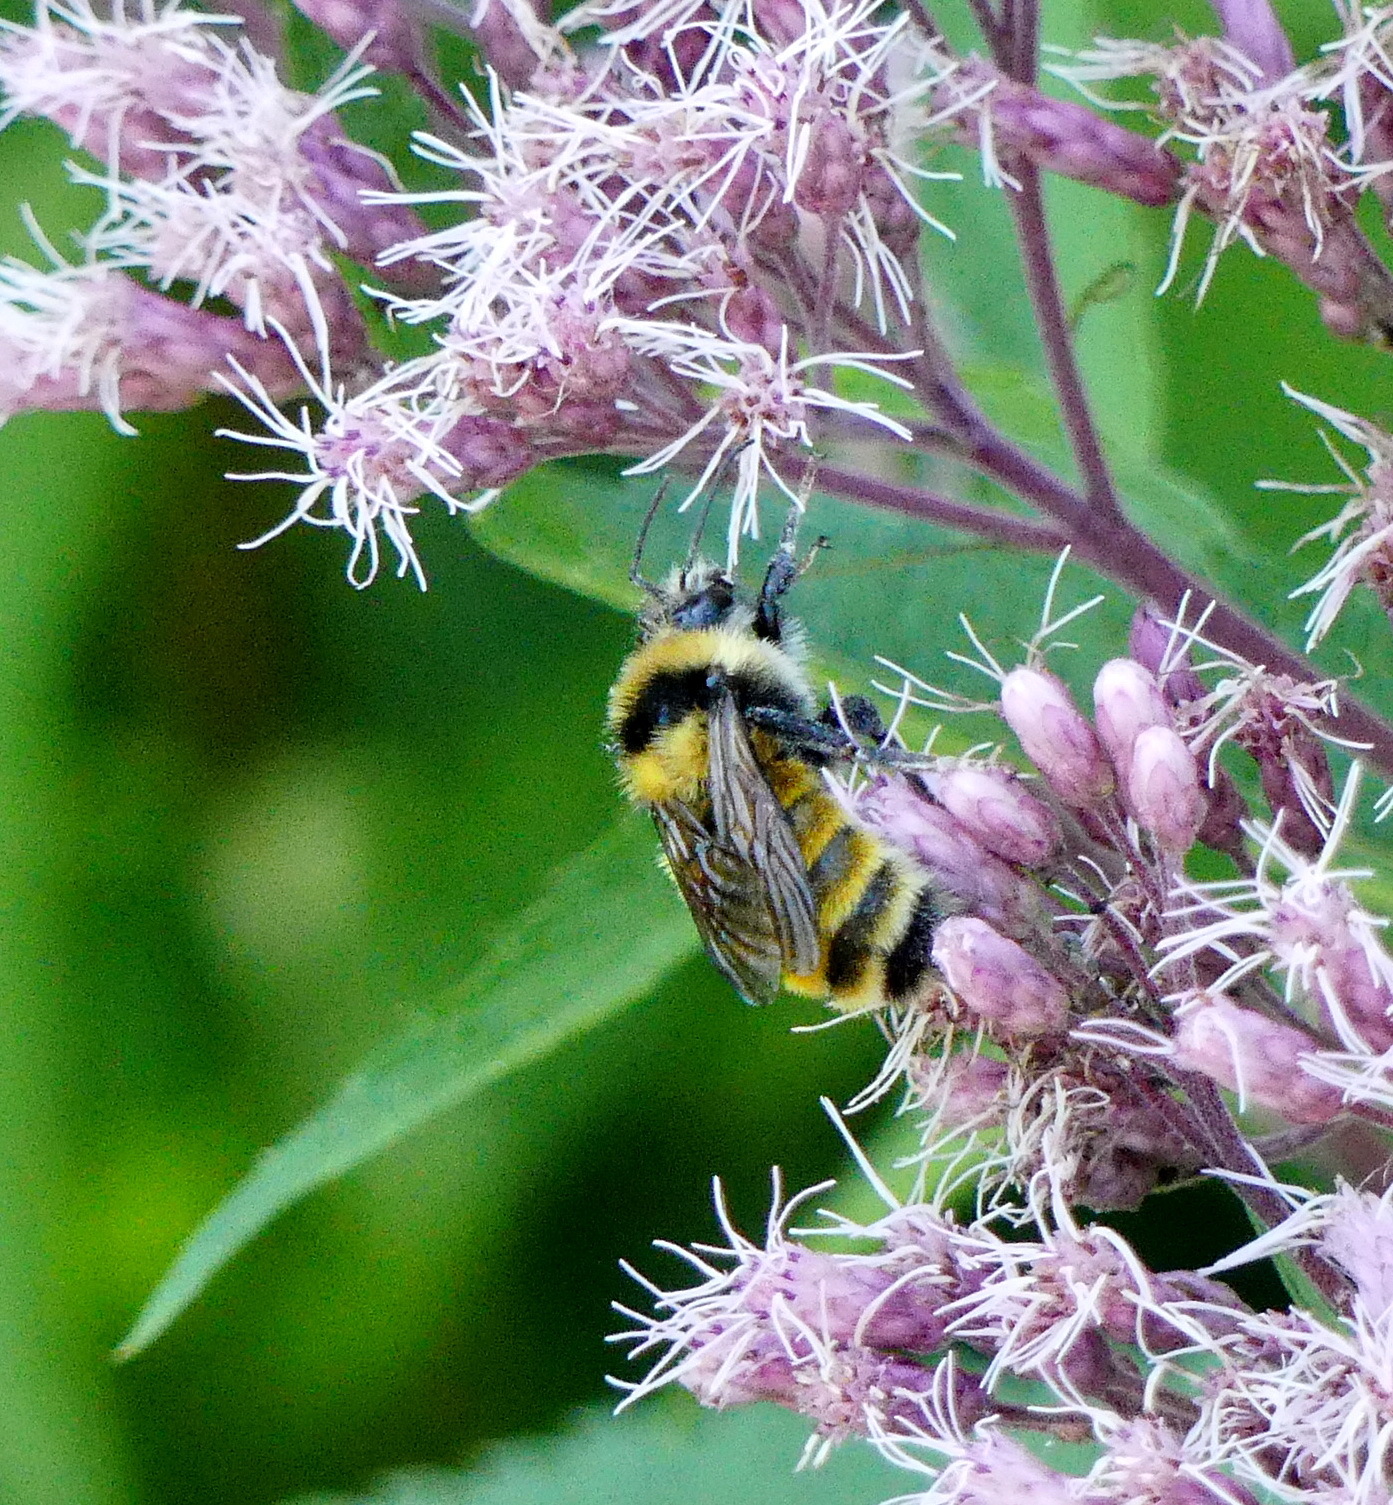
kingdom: Animalia
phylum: Arthropoda
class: Insecta
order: Hymenoptera
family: Apidae
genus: Bombus
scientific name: Bombus borealis
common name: Northern amber bumble bee
